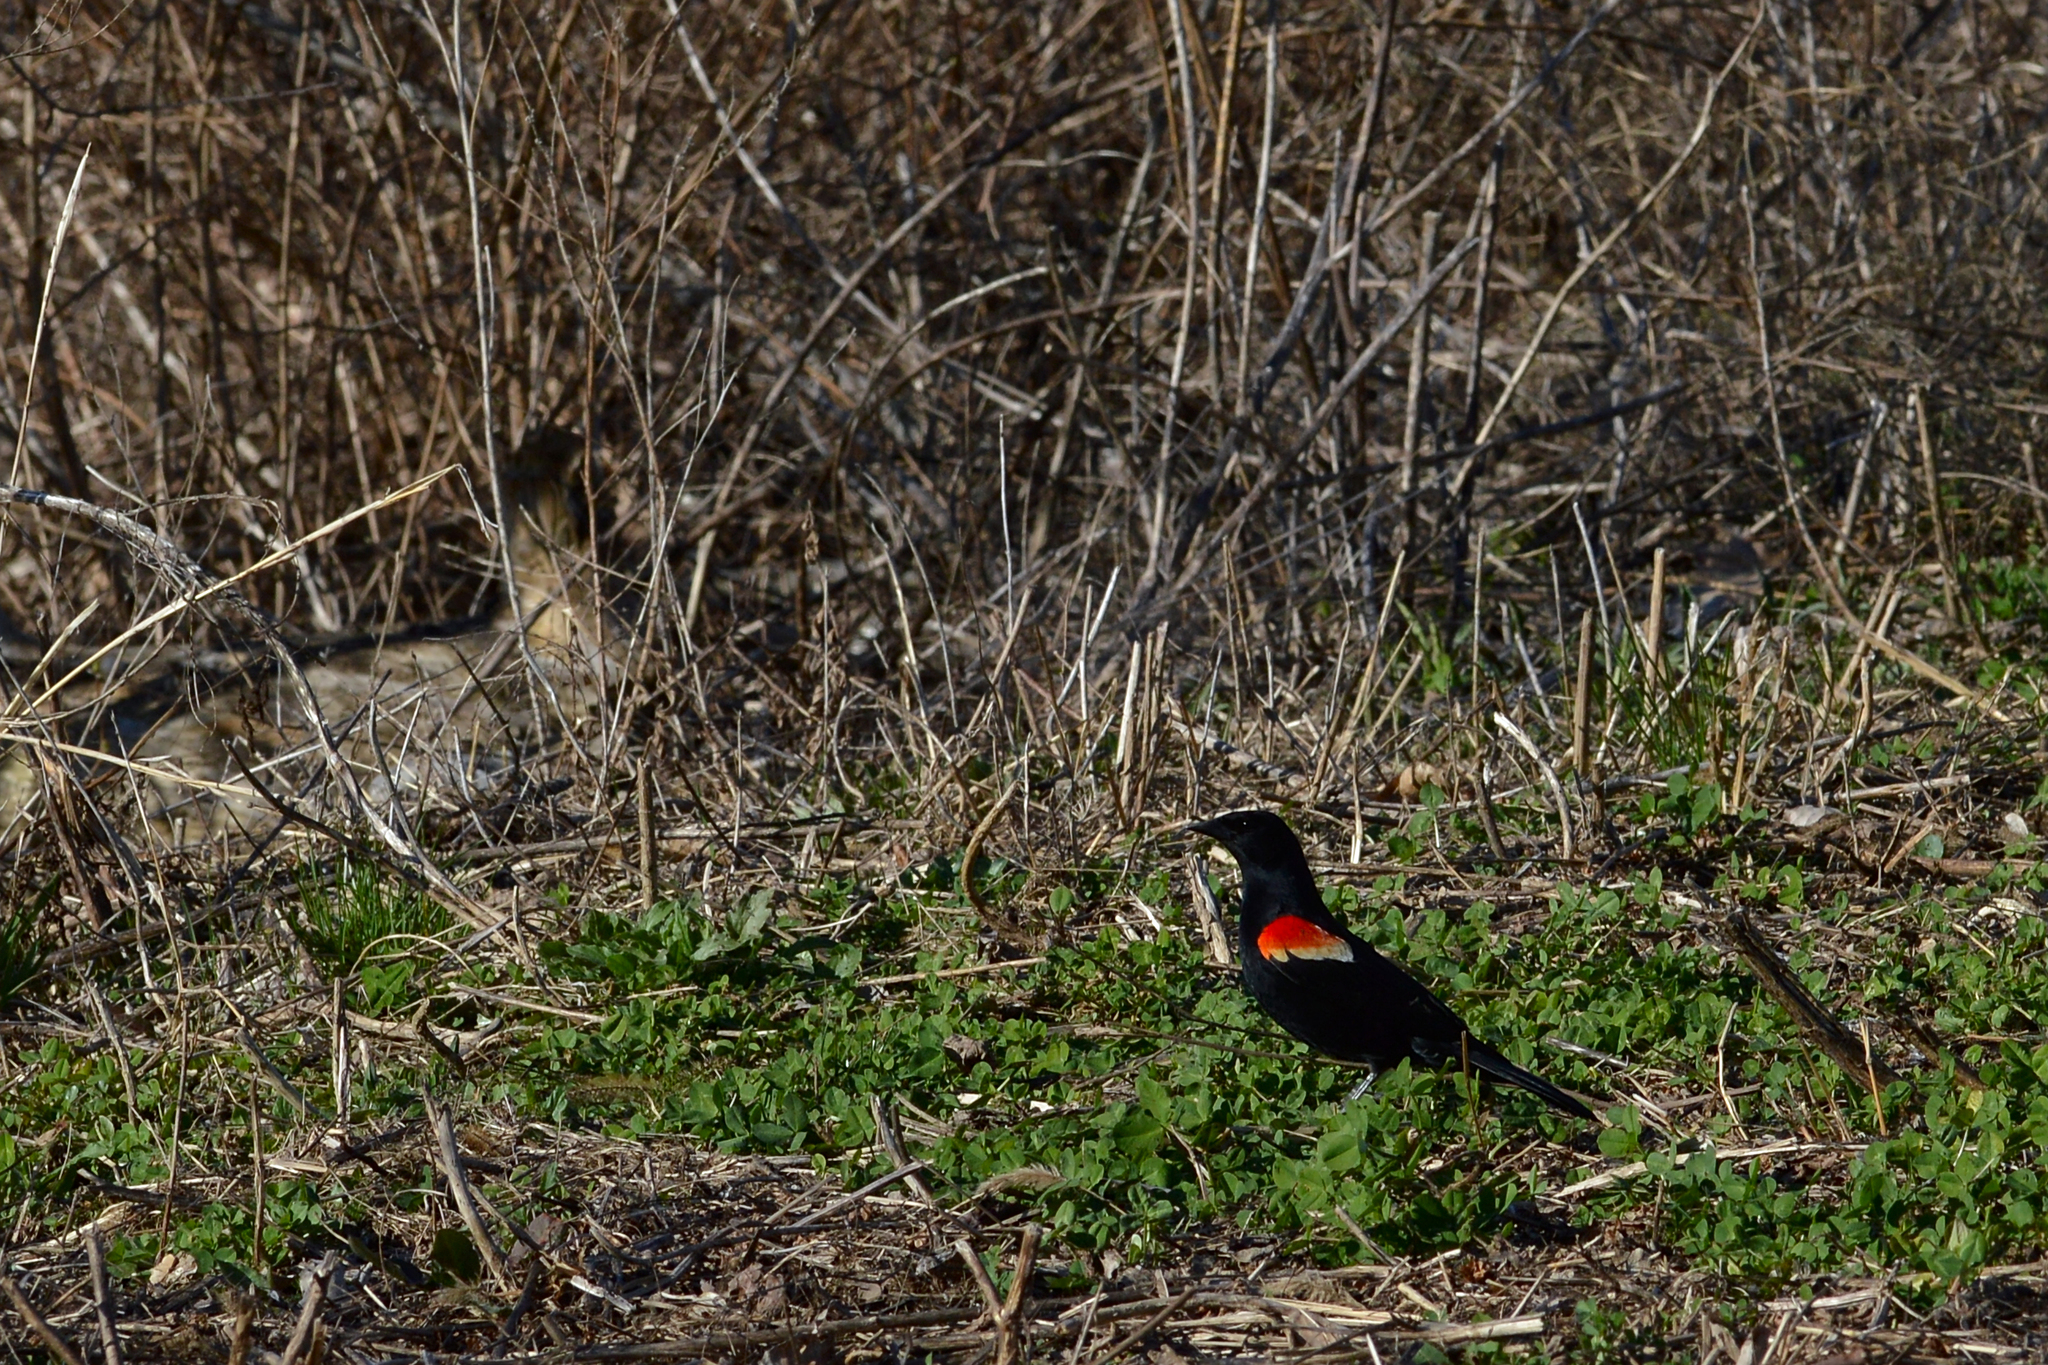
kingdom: Animalia
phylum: Chordata
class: Aves
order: Passeriformes
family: Icteridae
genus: Agelaius
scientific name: Agelaius phoeniceus
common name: Red-winged blackbird
